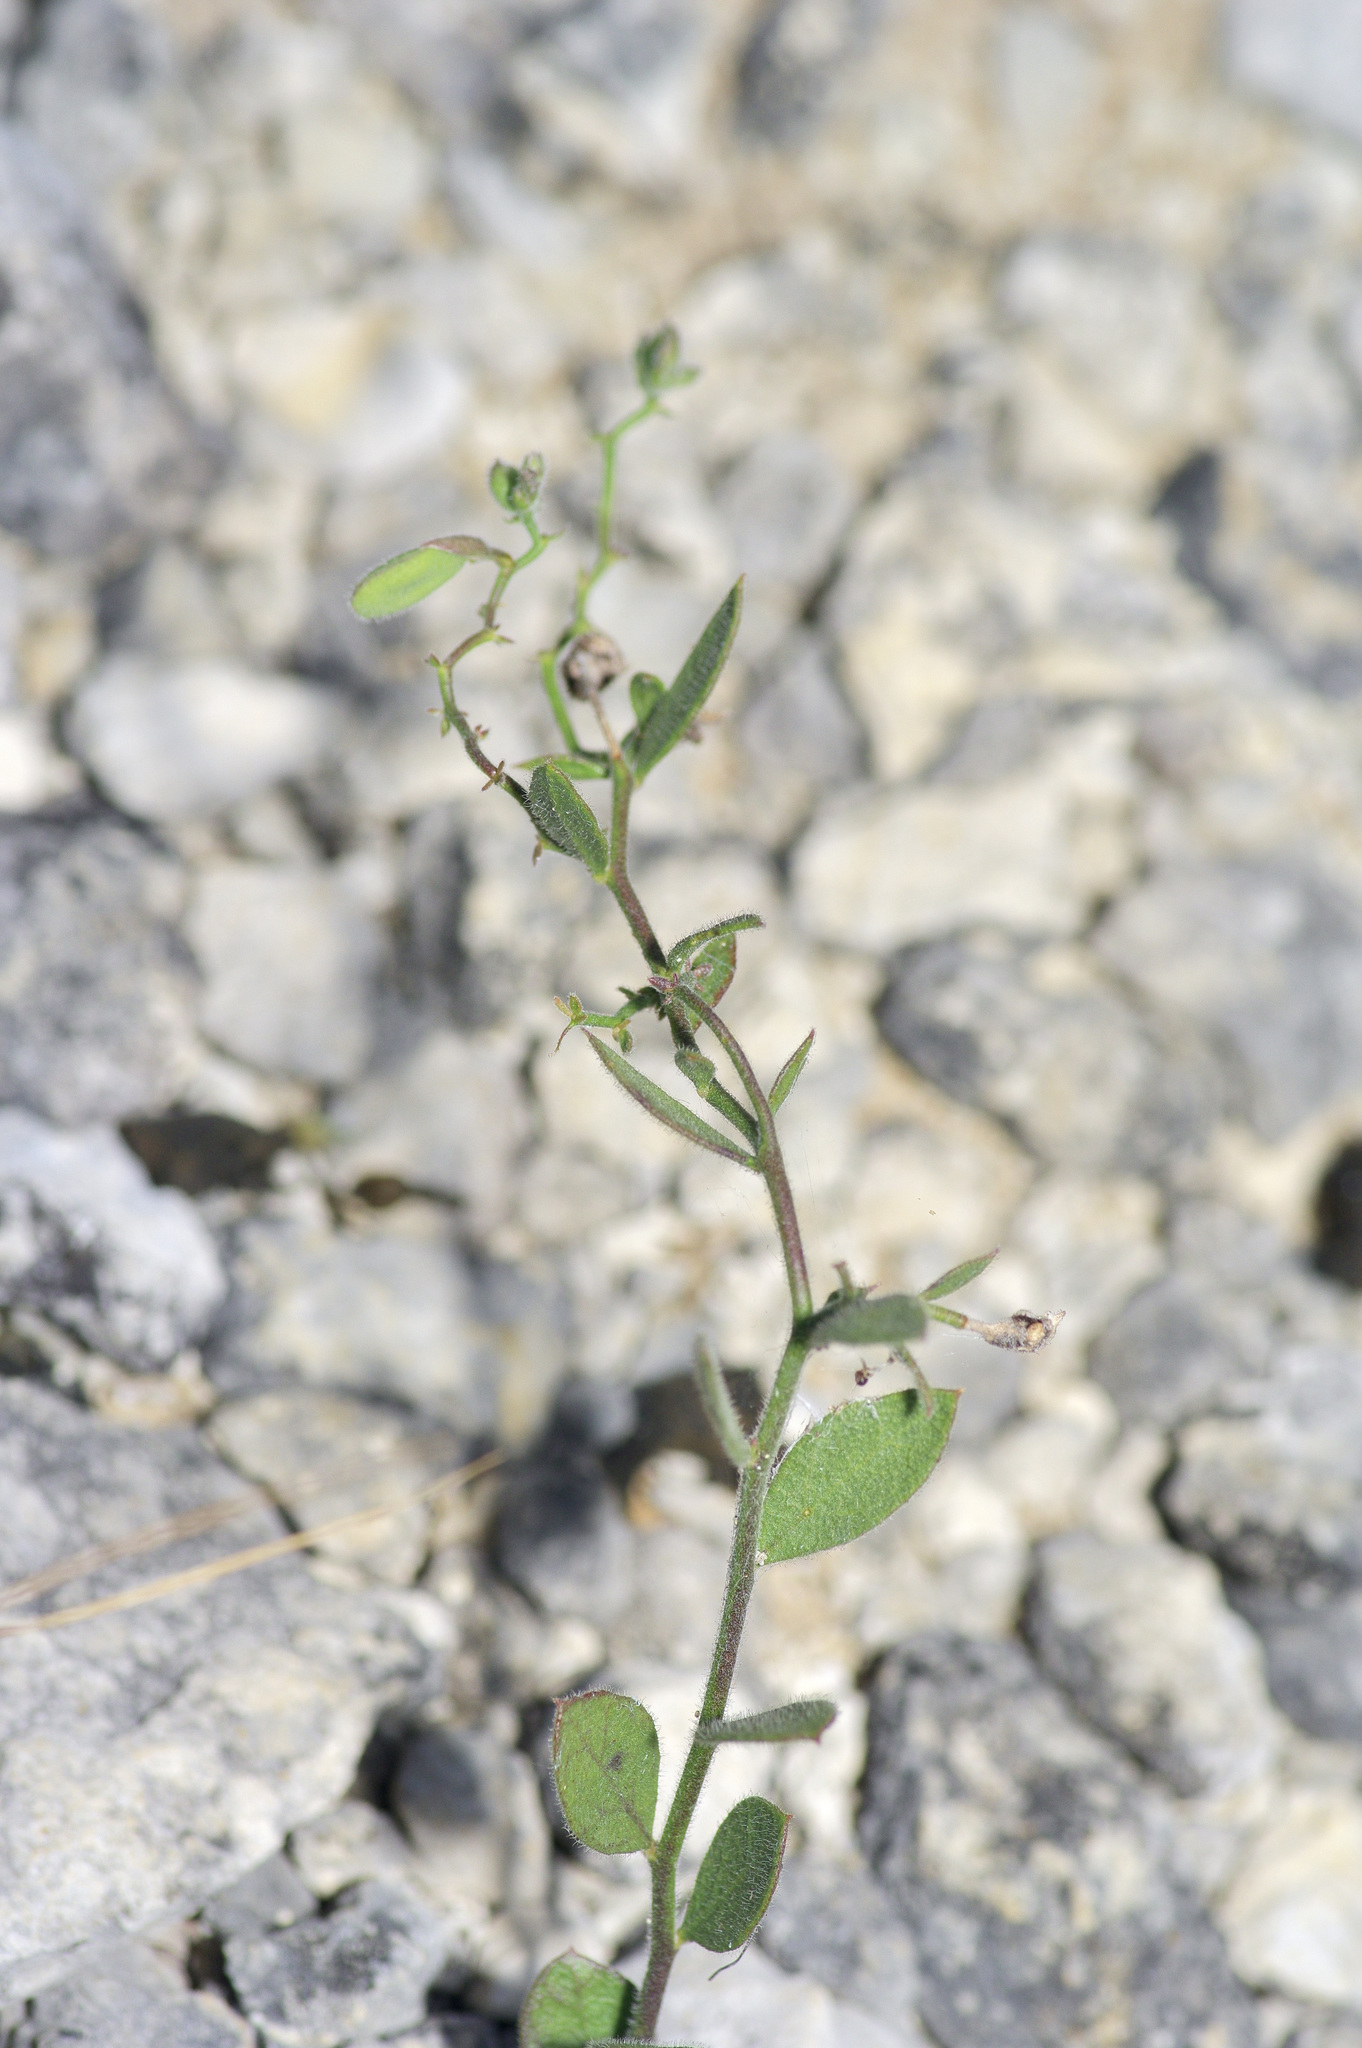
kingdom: Plantae
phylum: Tracheophyta
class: Magnoliopsida
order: Fabales
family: Polygalaceae
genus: Rhinotropis
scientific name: Rhinotropis lindheimeri
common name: Shrubby milkwort
